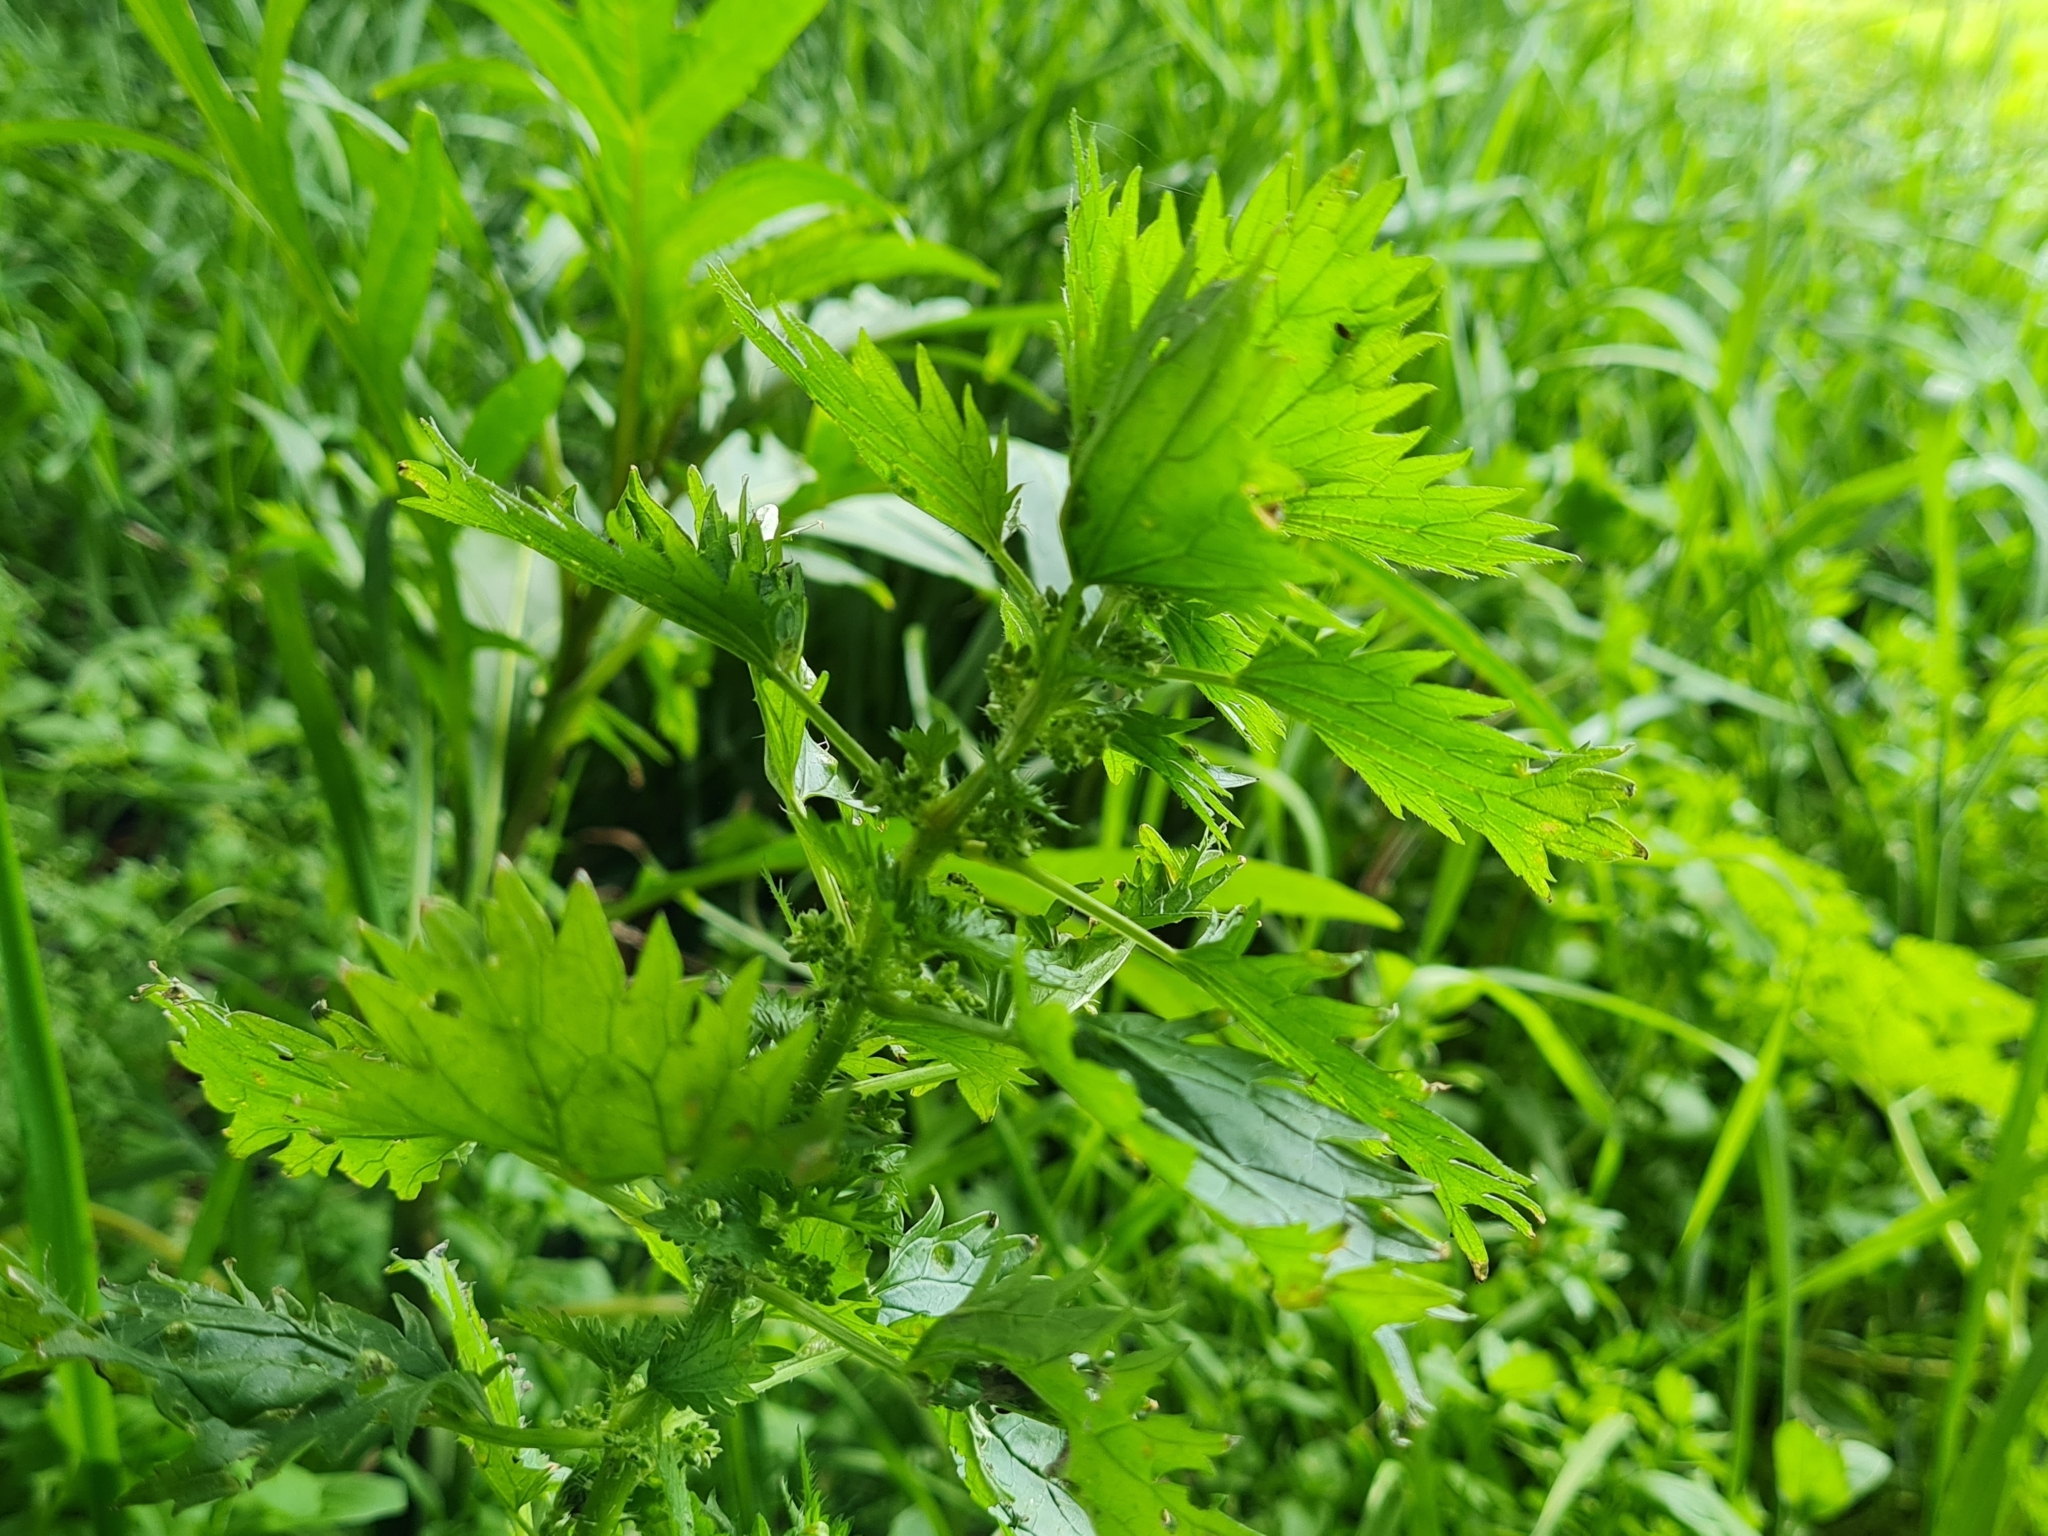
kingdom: Plantae
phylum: Tracheophyta
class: Magnoliopsida
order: Rosales
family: Urticaceae
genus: Urtica
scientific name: Urtica urens
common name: Dwarf nettle
